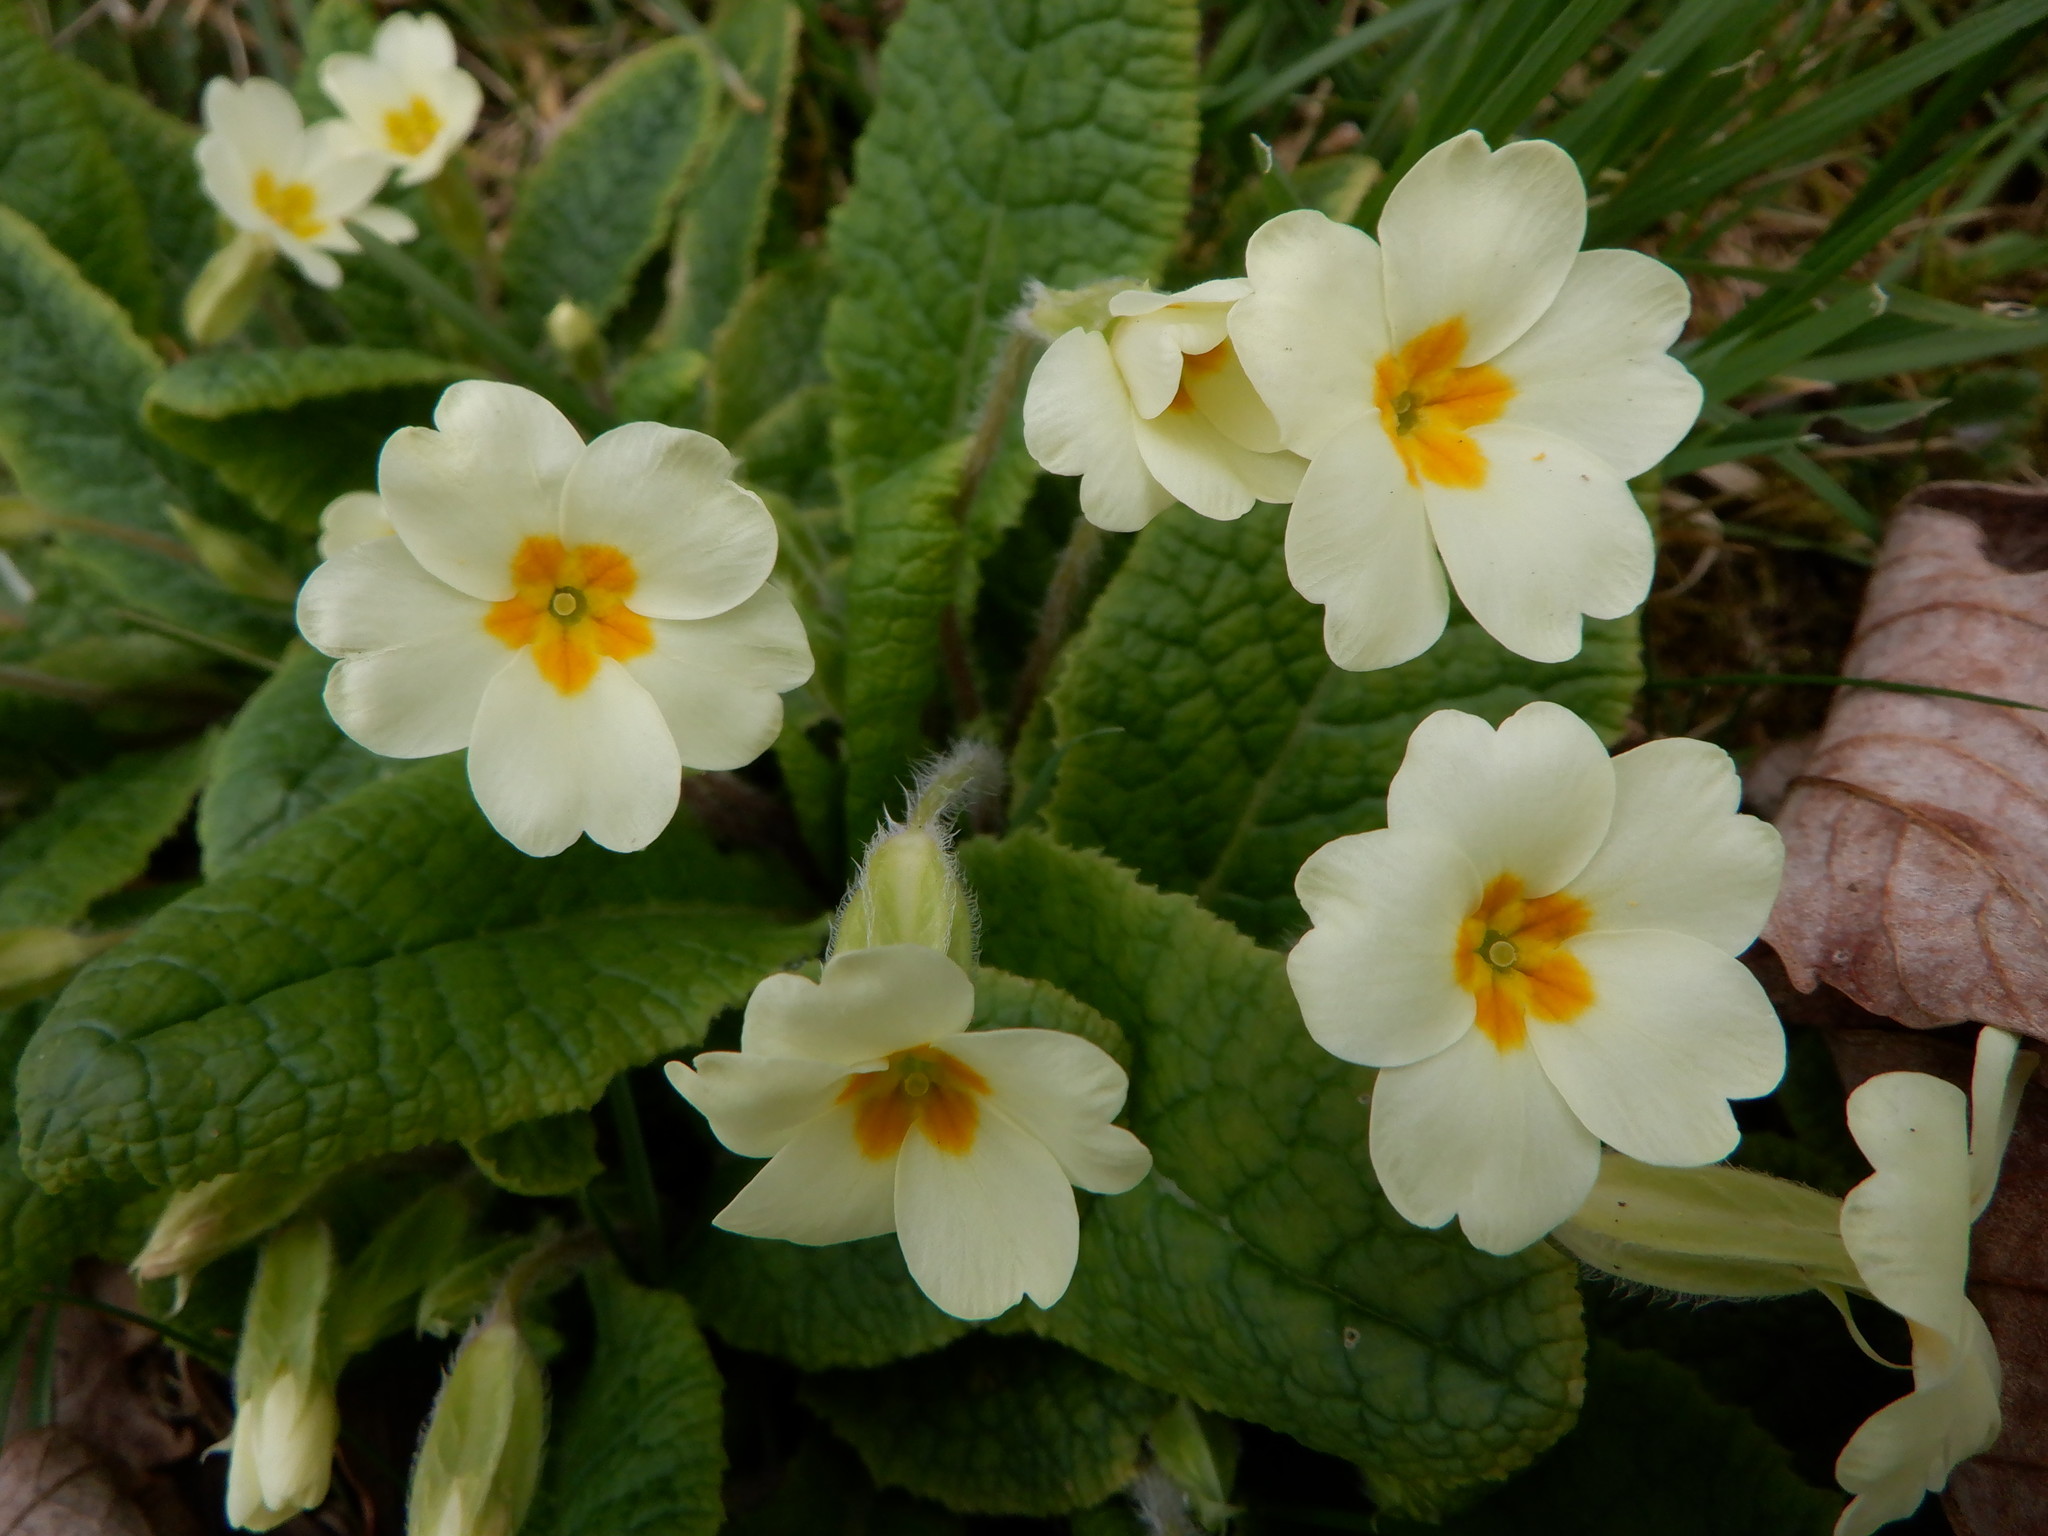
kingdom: Plantae
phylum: Tracheophyta
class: Magnoliopsida
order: Ericales
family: Primulaceae
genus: Primula
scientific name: Primula vulgaris
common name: Primrose
